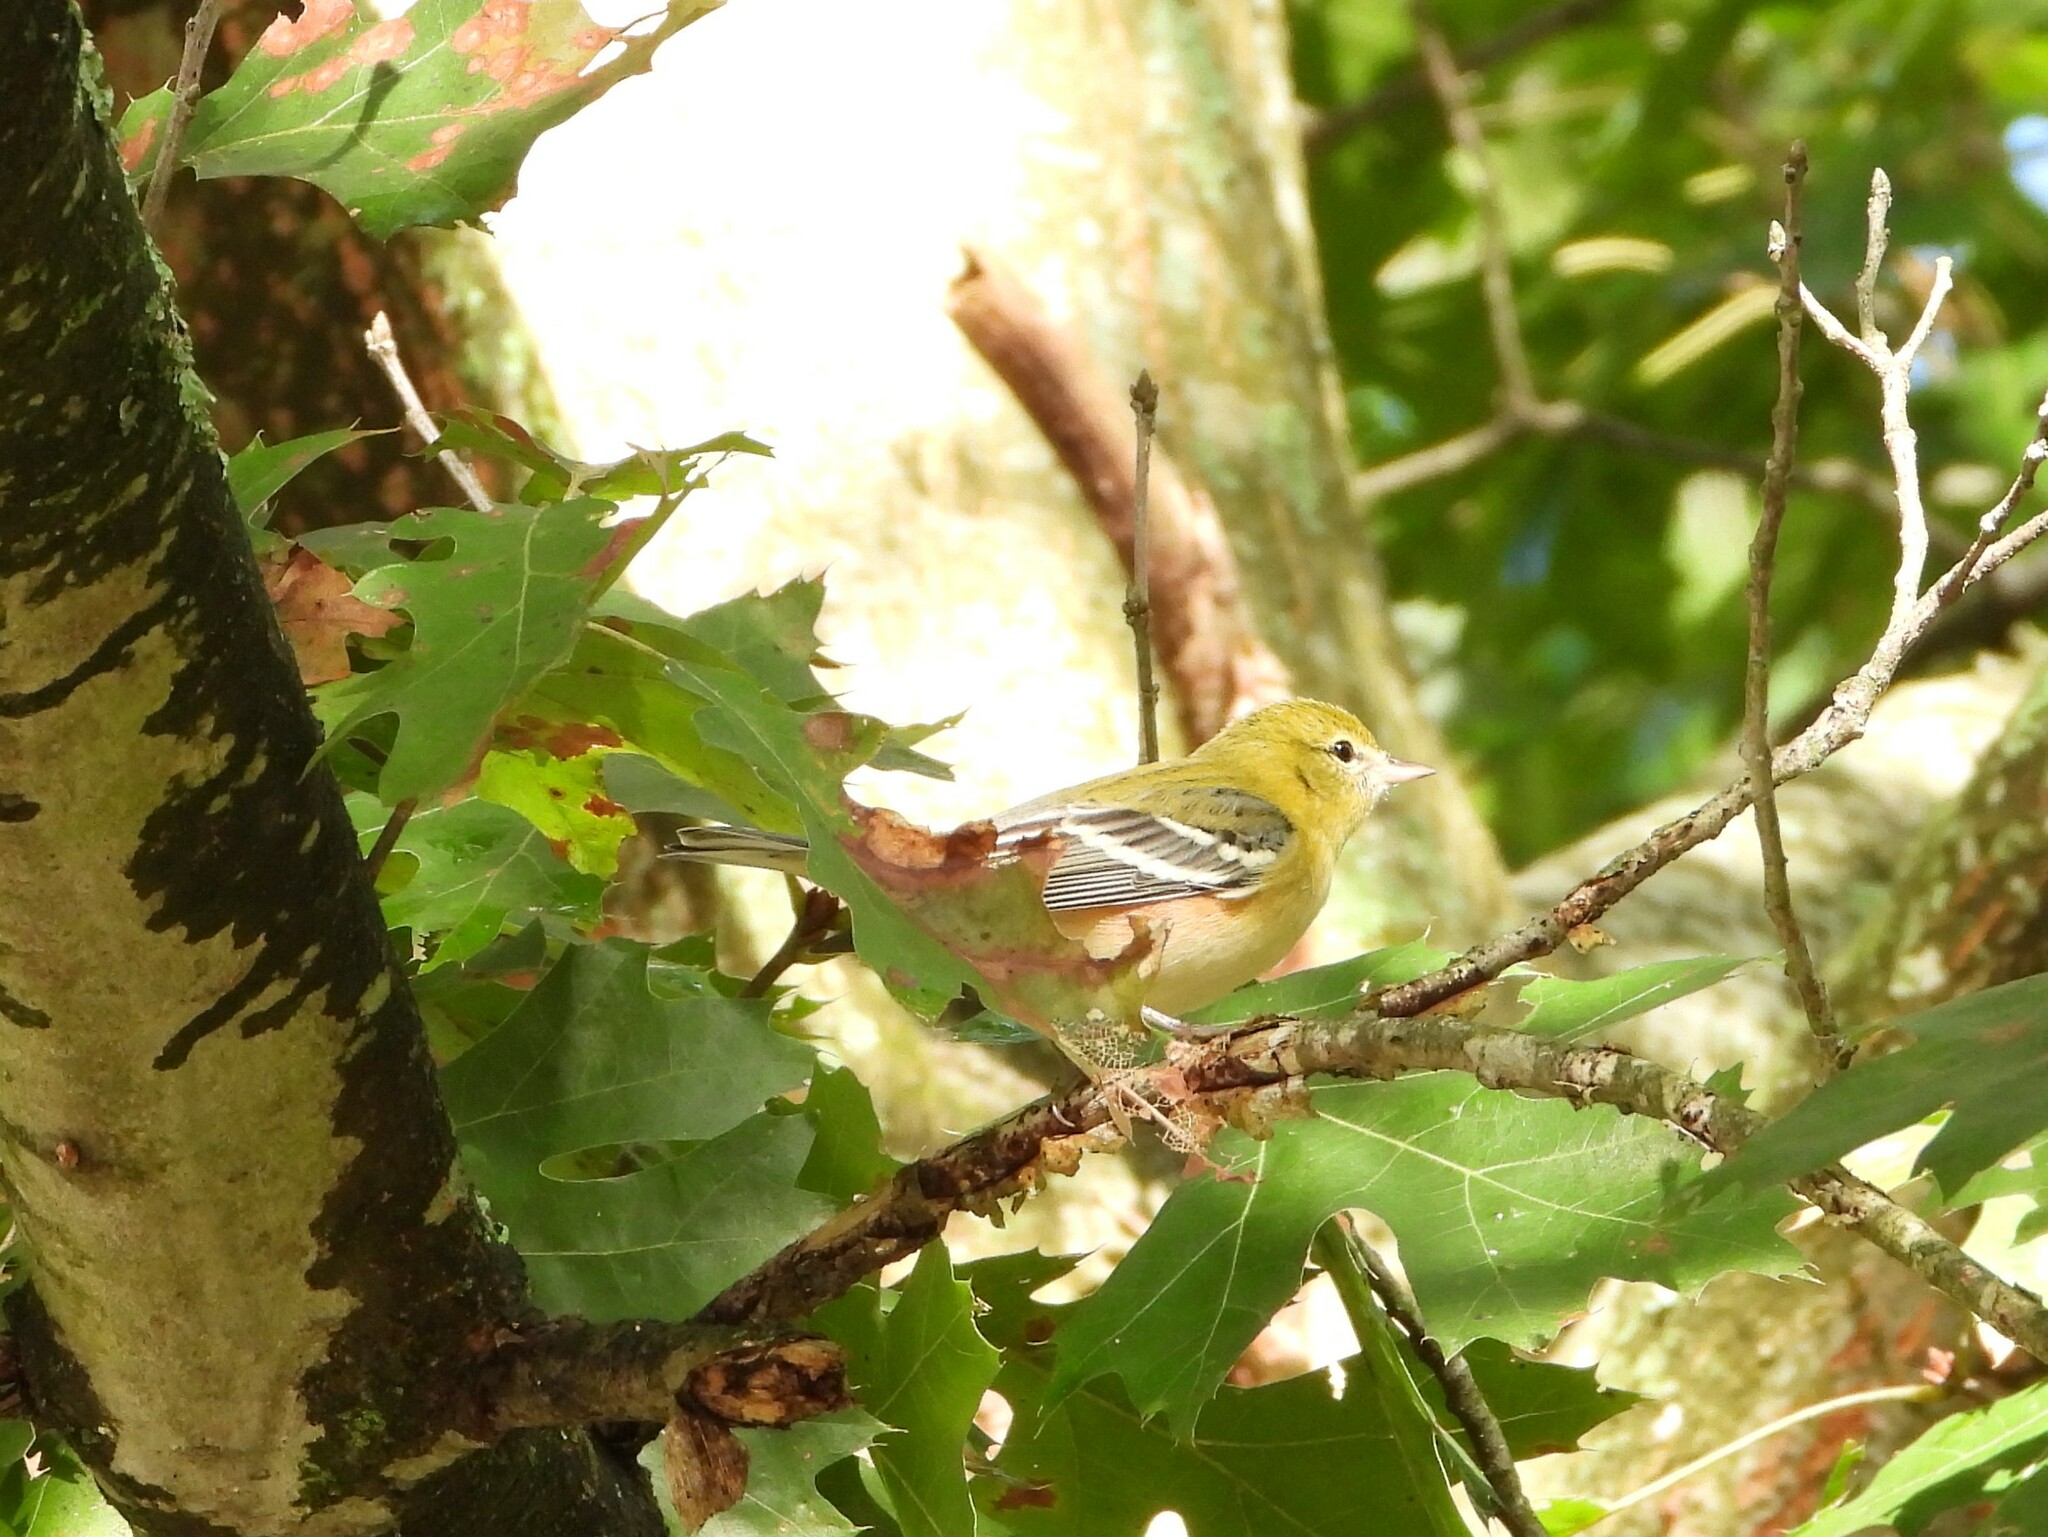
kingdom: Animalia
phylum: Chordata
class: Aves
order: Passeriformes
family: Parulidae
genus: Setophaga
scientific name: Setophaga castanea
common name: Bay-breasted warbler
